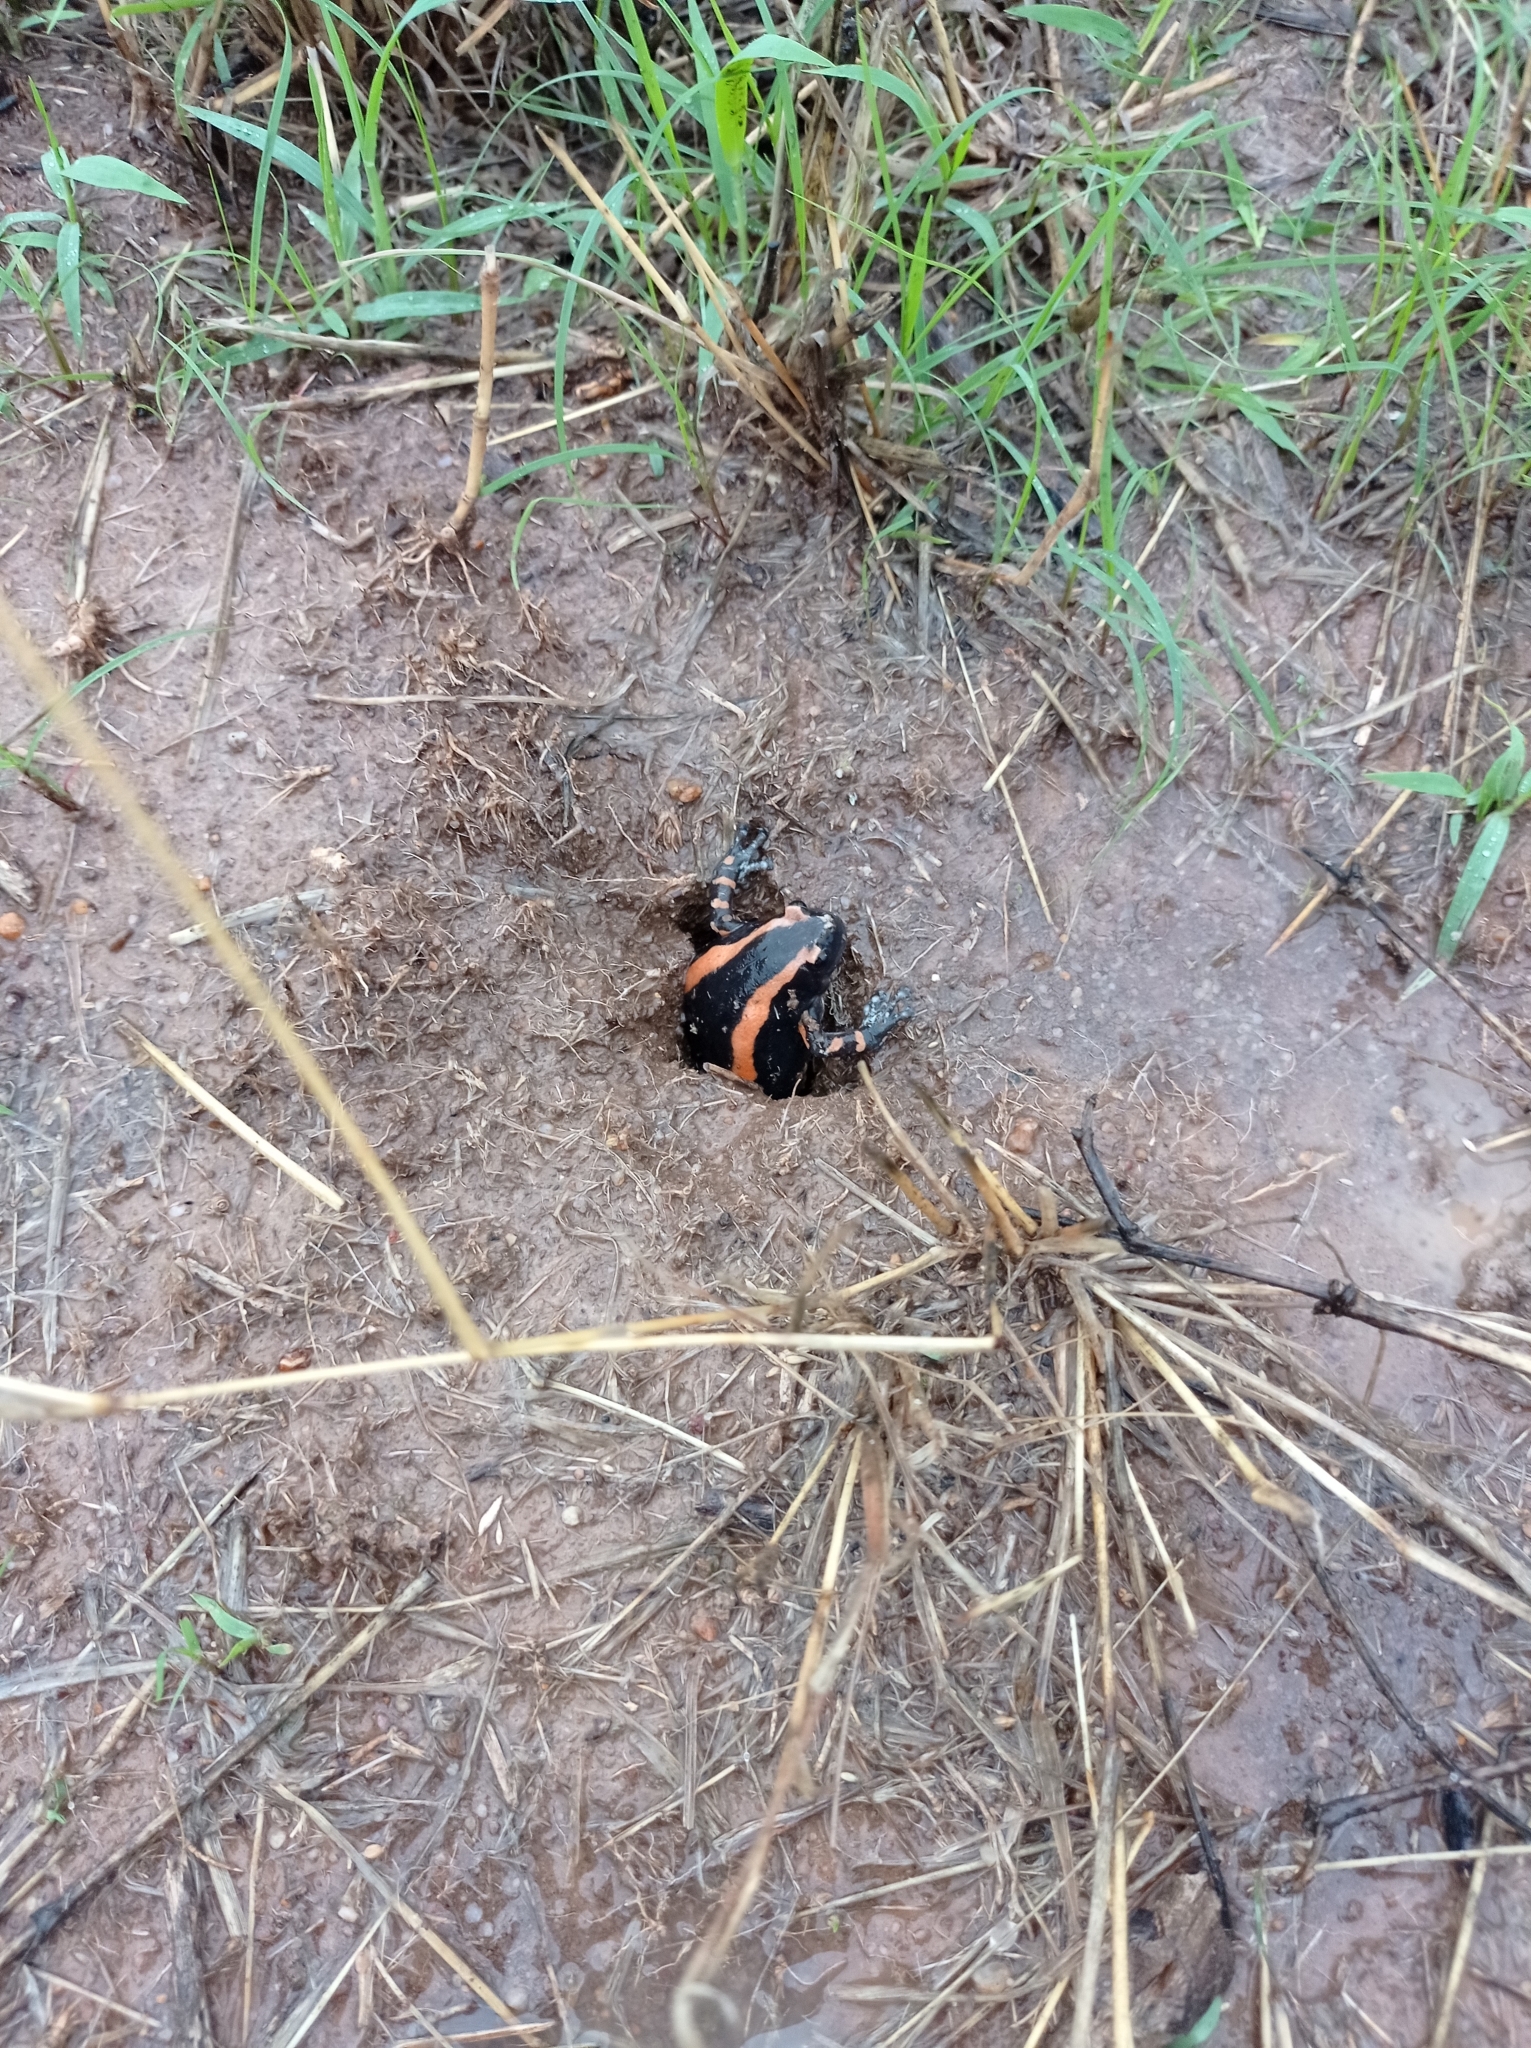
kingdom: Animalia
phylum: Chordata
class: Amphibia
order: Anura
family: Microhylidae
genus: Phrynomantis
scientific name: Phrynomantis bifasciatus
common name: Banded rubber frog
